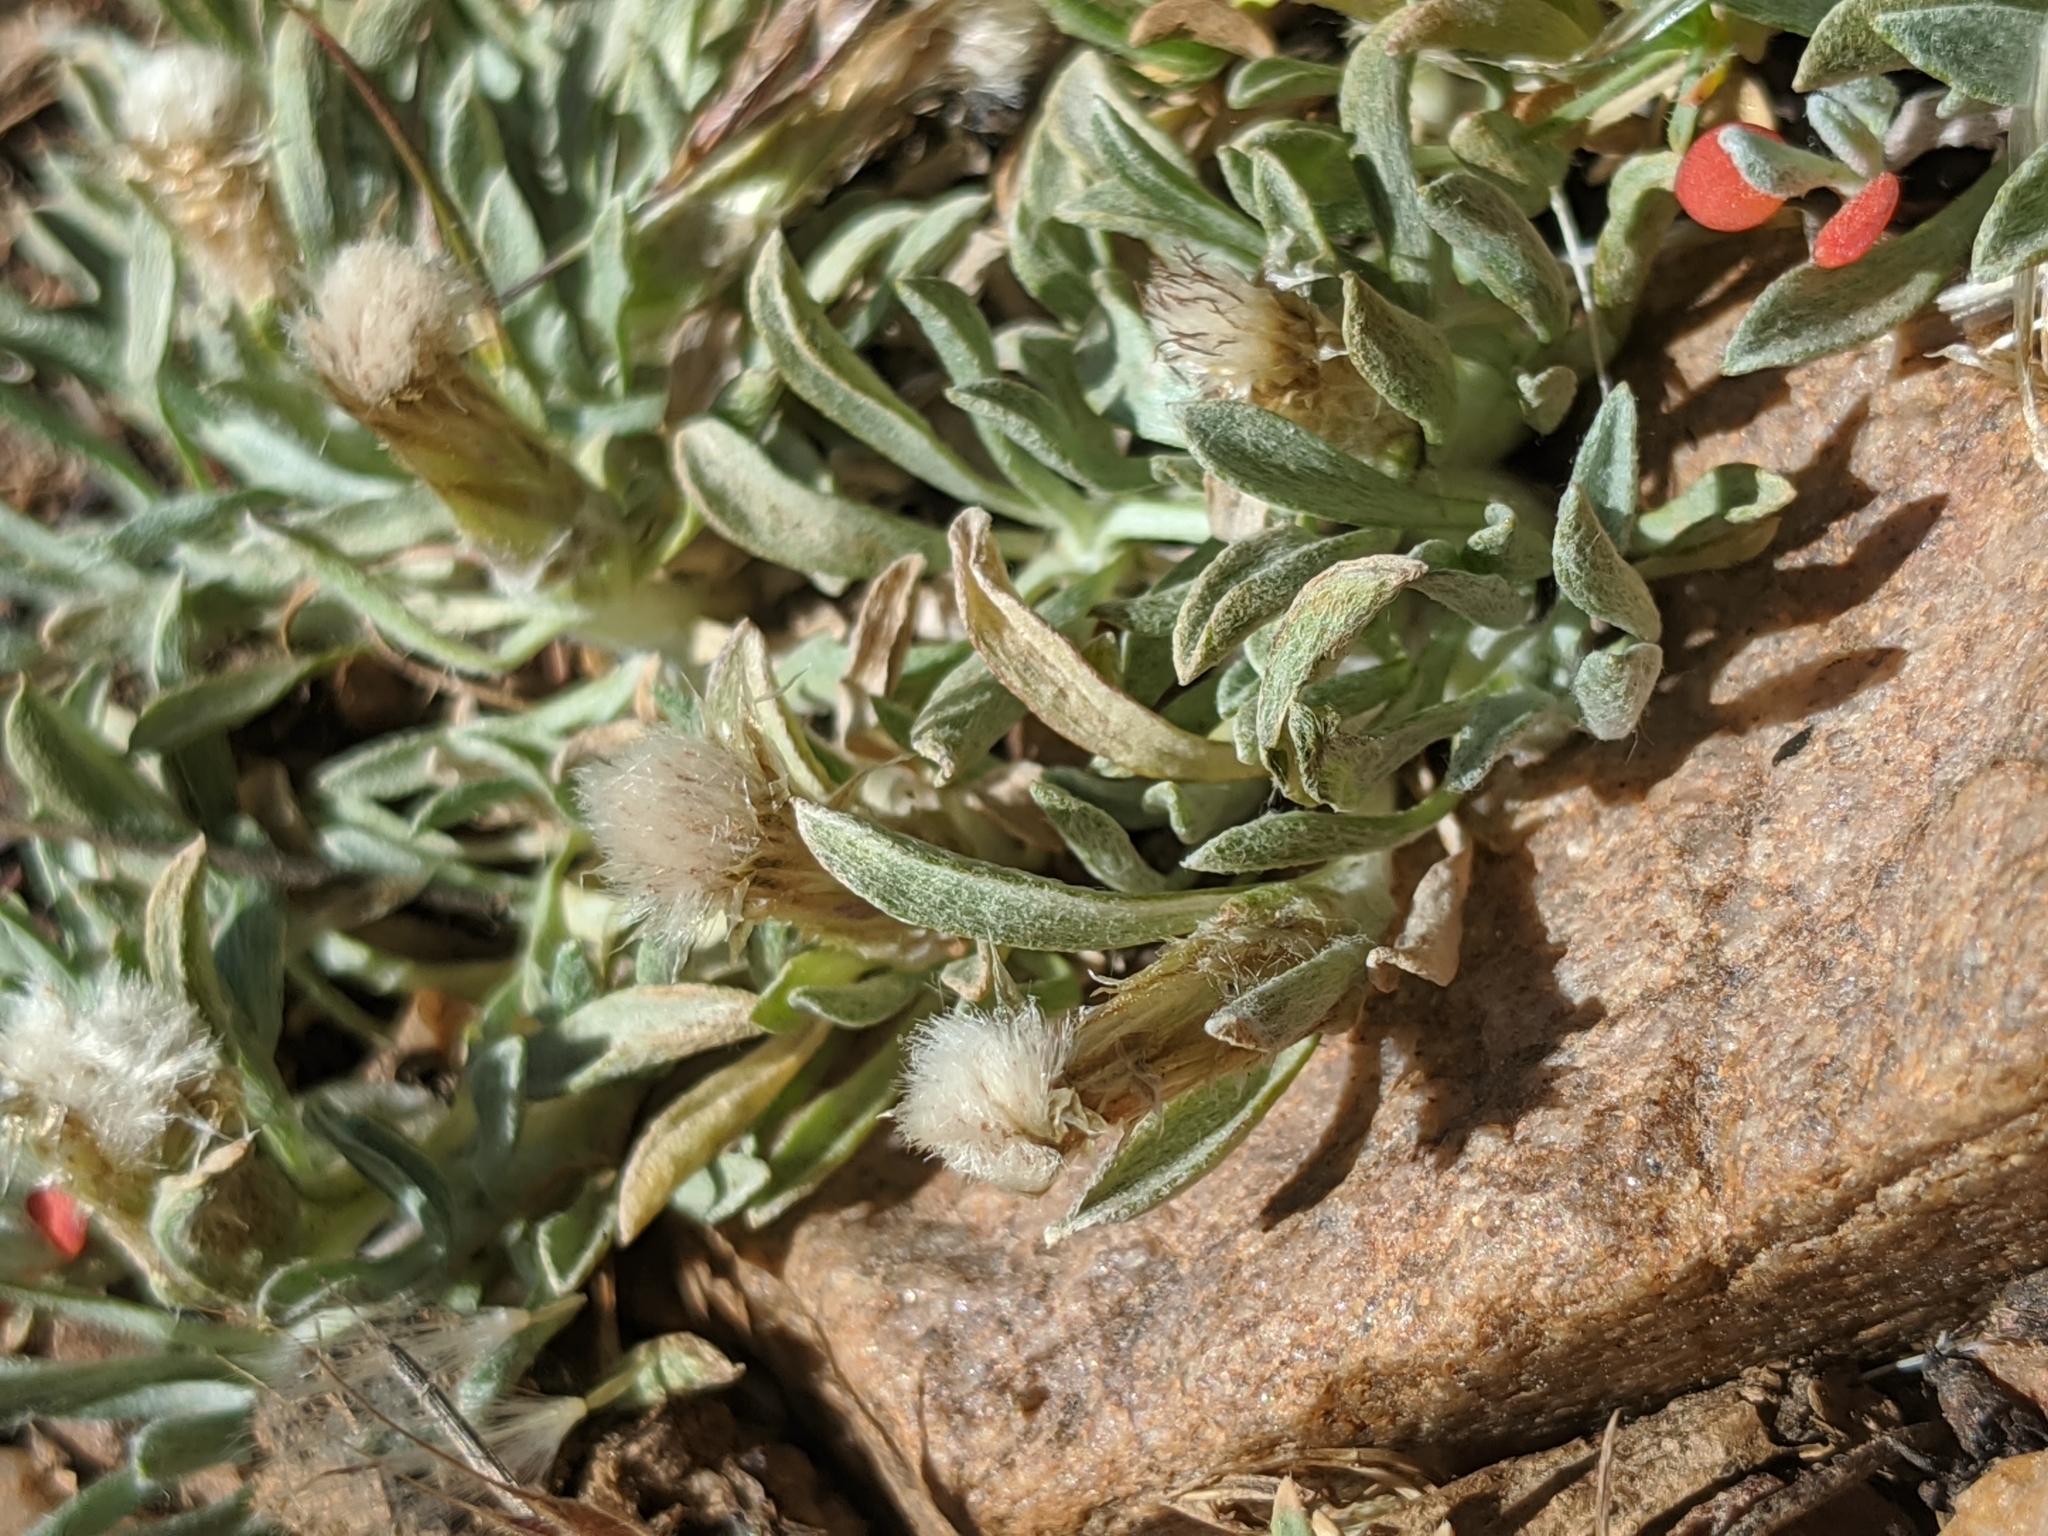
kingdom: Plantae
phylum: Tracheophyta
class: Magnoliopsida
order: Asterales
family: Asteraceae
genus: Antennaria
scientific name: Antennaria dimorpha
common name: Cushion pussytoes
